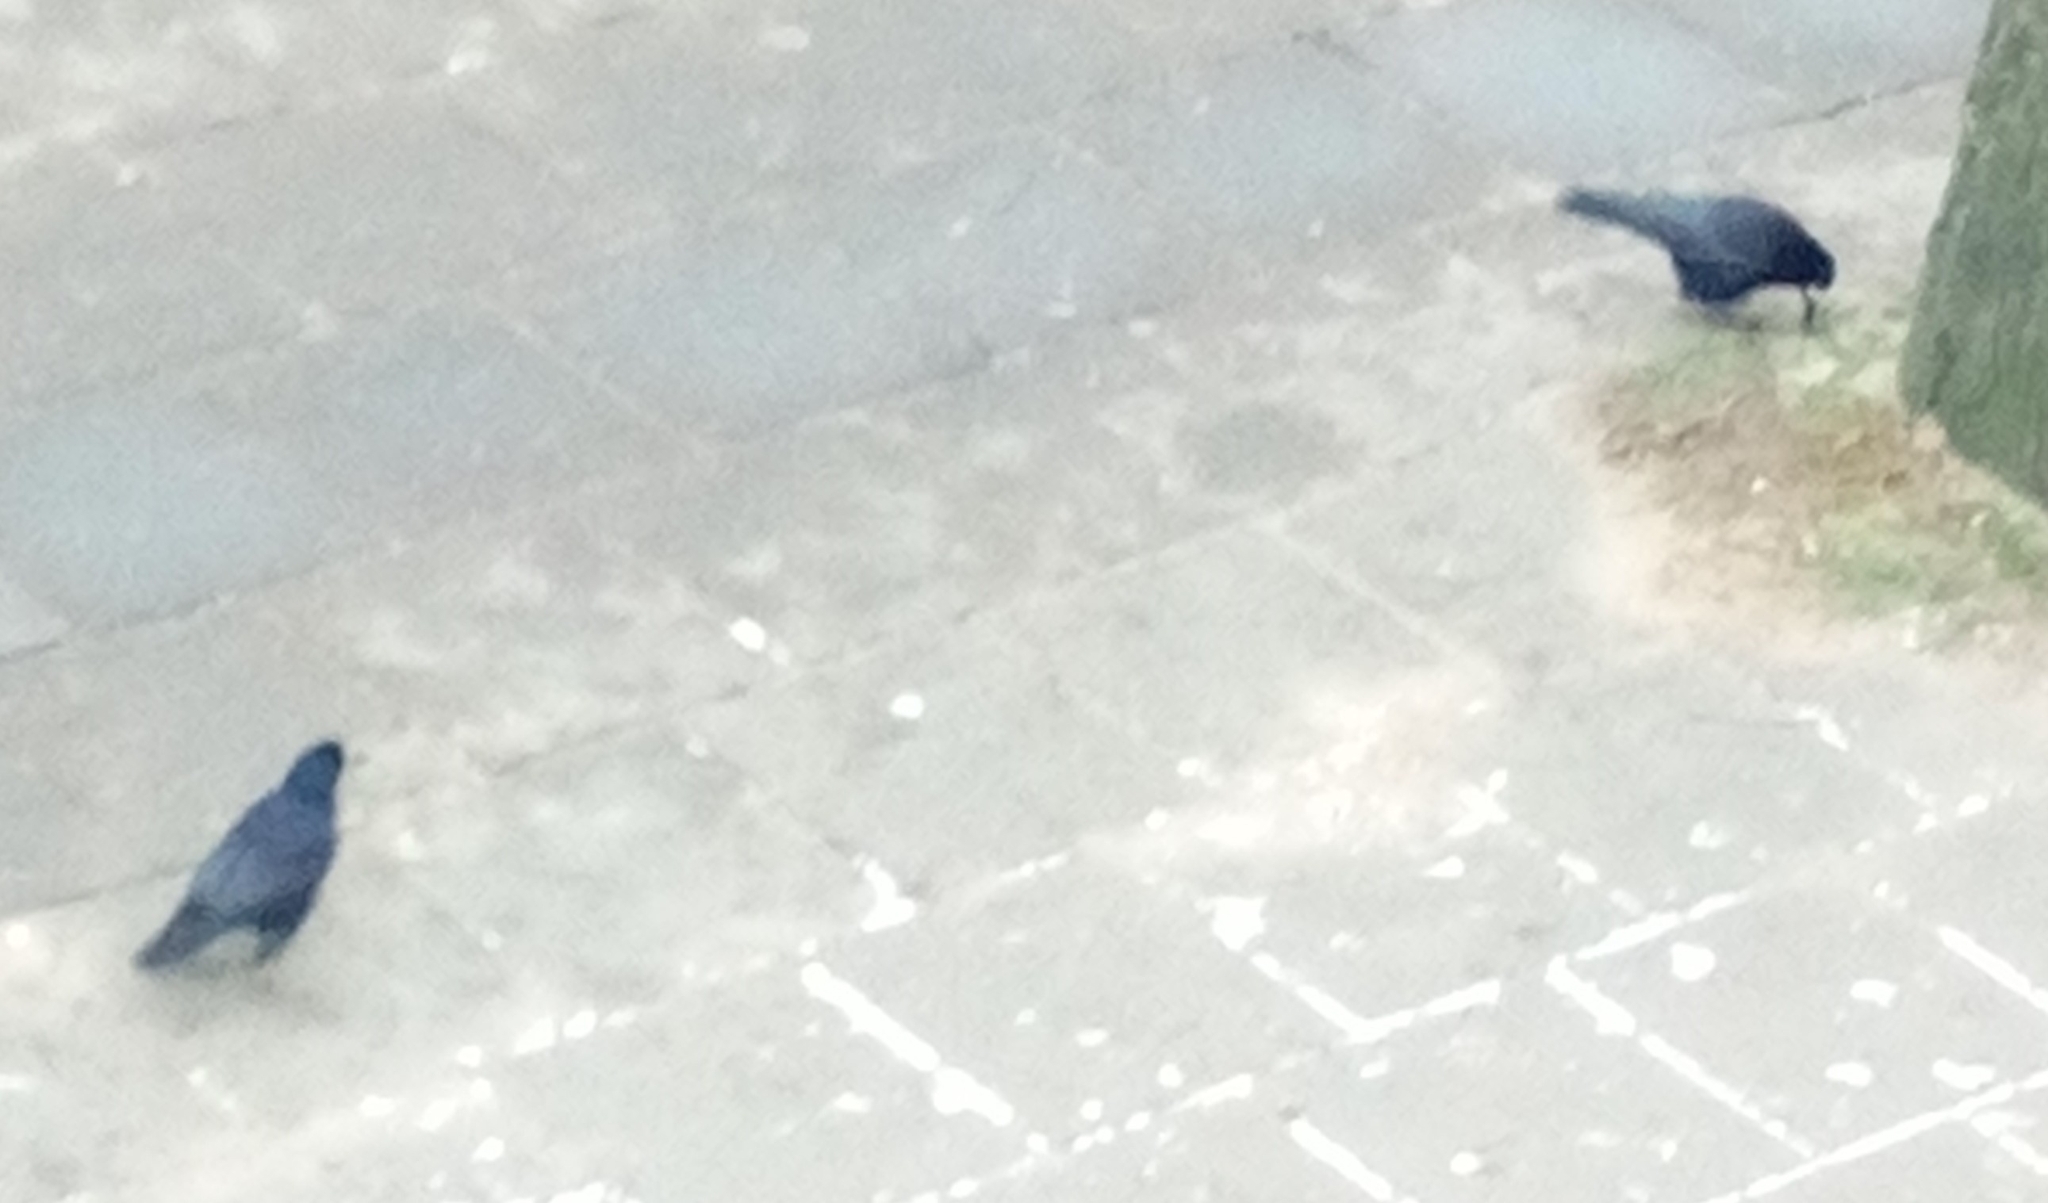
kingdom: Animalia
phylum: Chordata
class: Aves
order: Passeriformes
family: Corvidae
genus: Corvus
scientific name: Corvus frugilegus
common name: Rook
